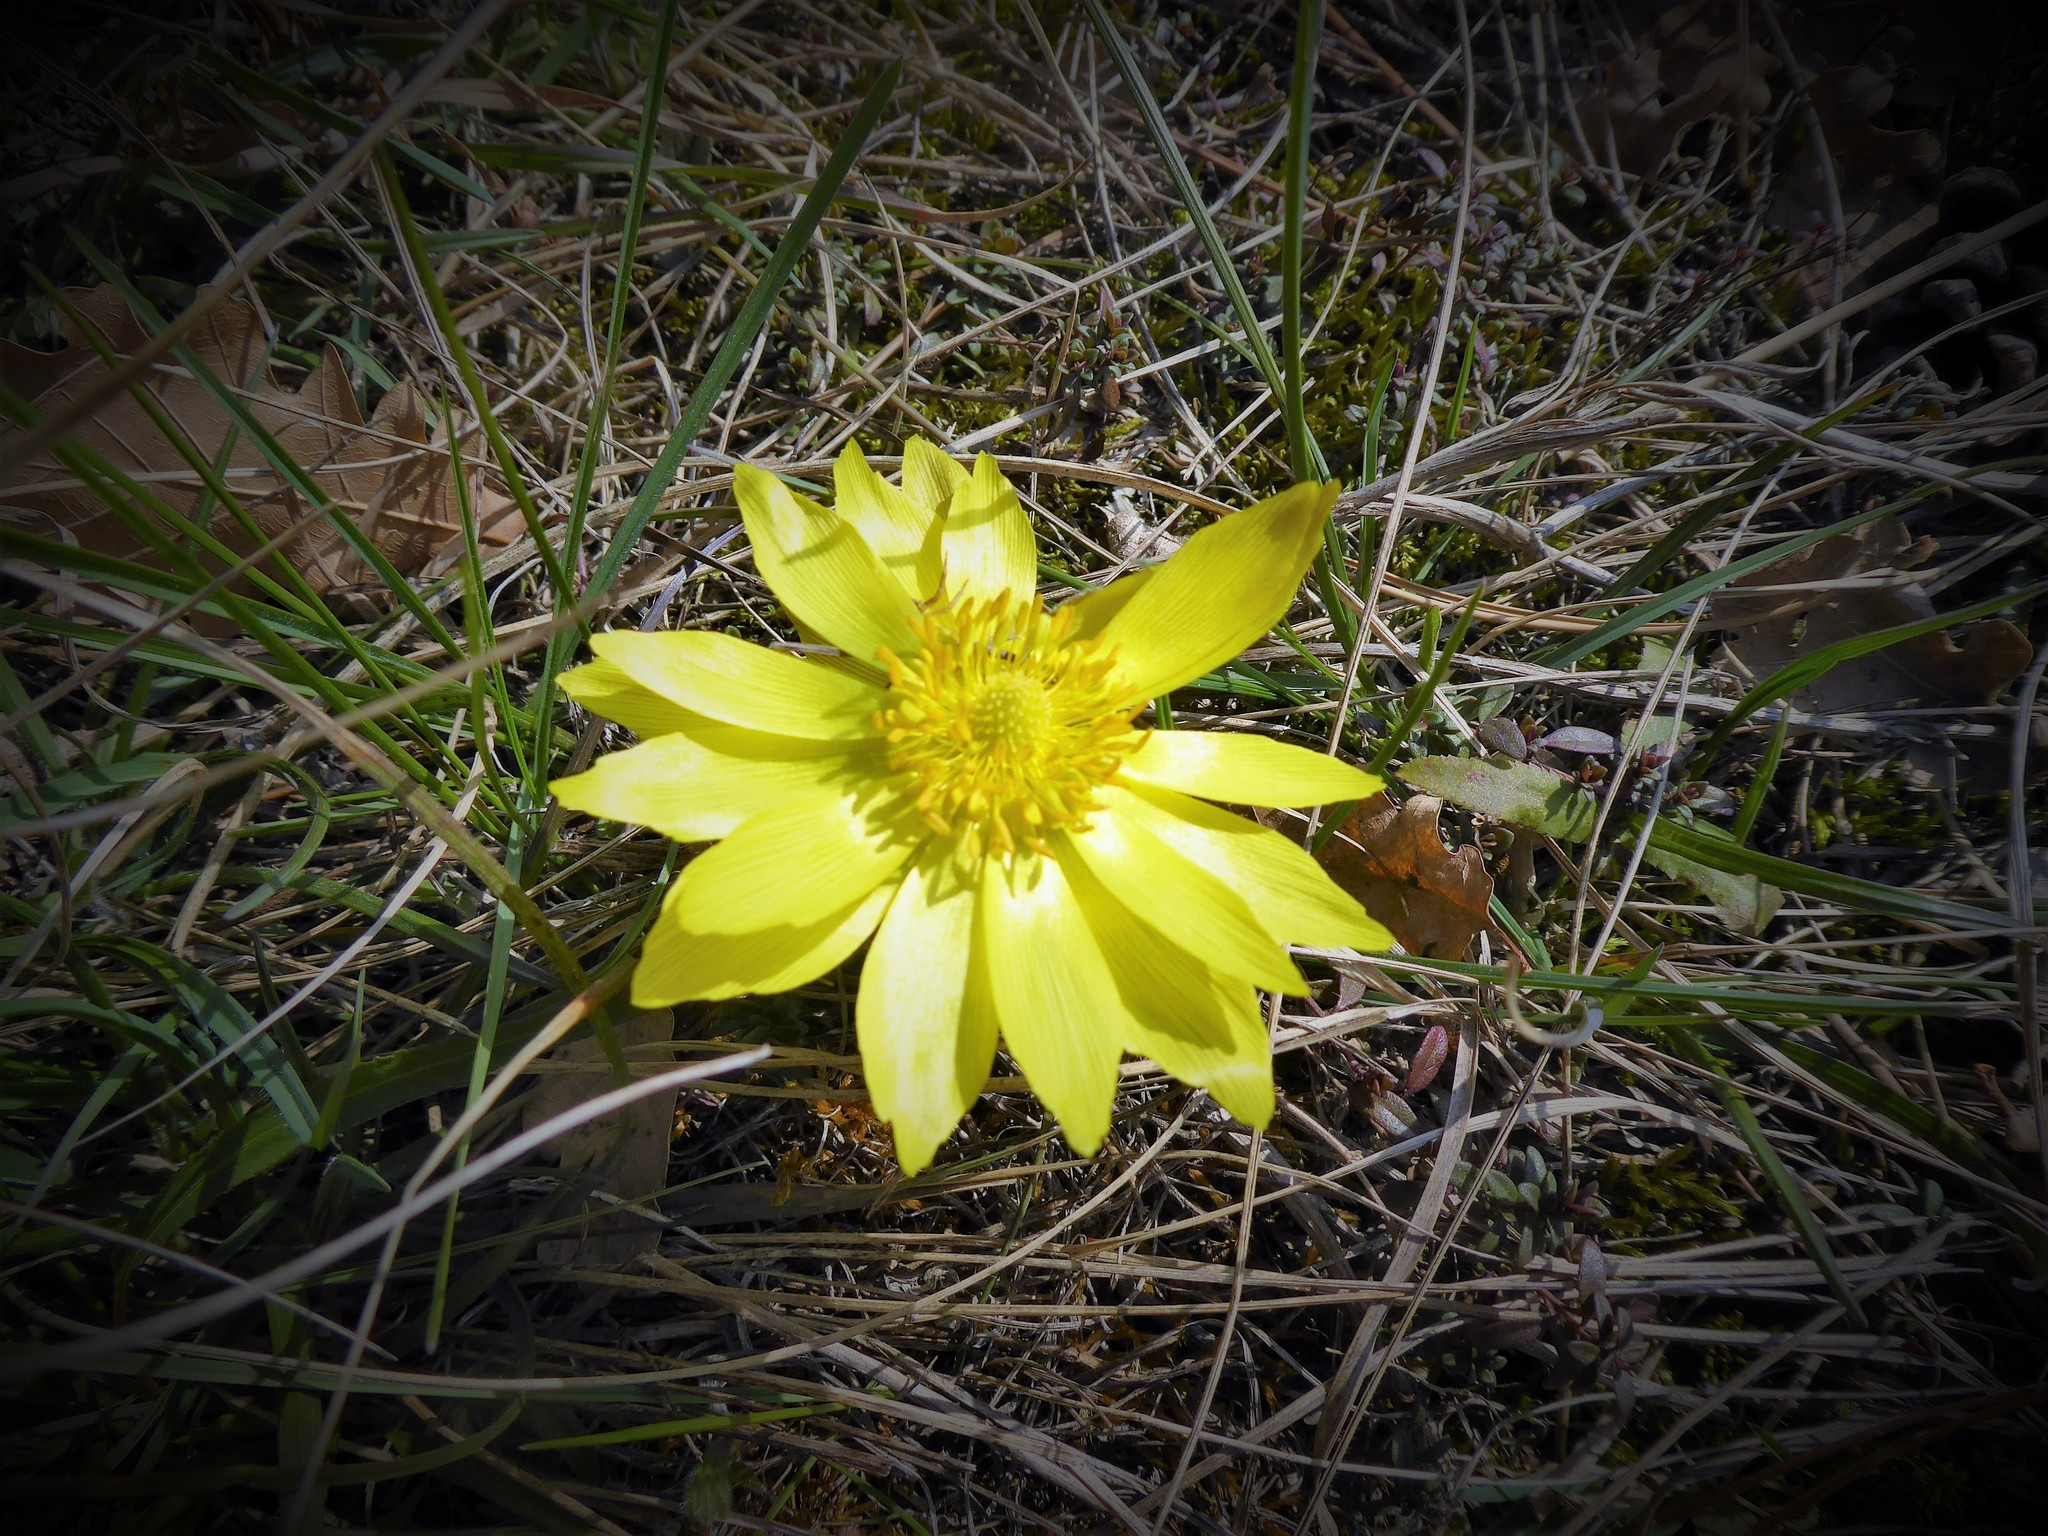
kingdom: Plantae
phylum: Tracheophyta
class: Magnoliopsida
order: Ranunculales
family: Ranunculaceae
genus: Adonis
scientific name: Adonis vernalis
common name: Yellow pheasants-eye
